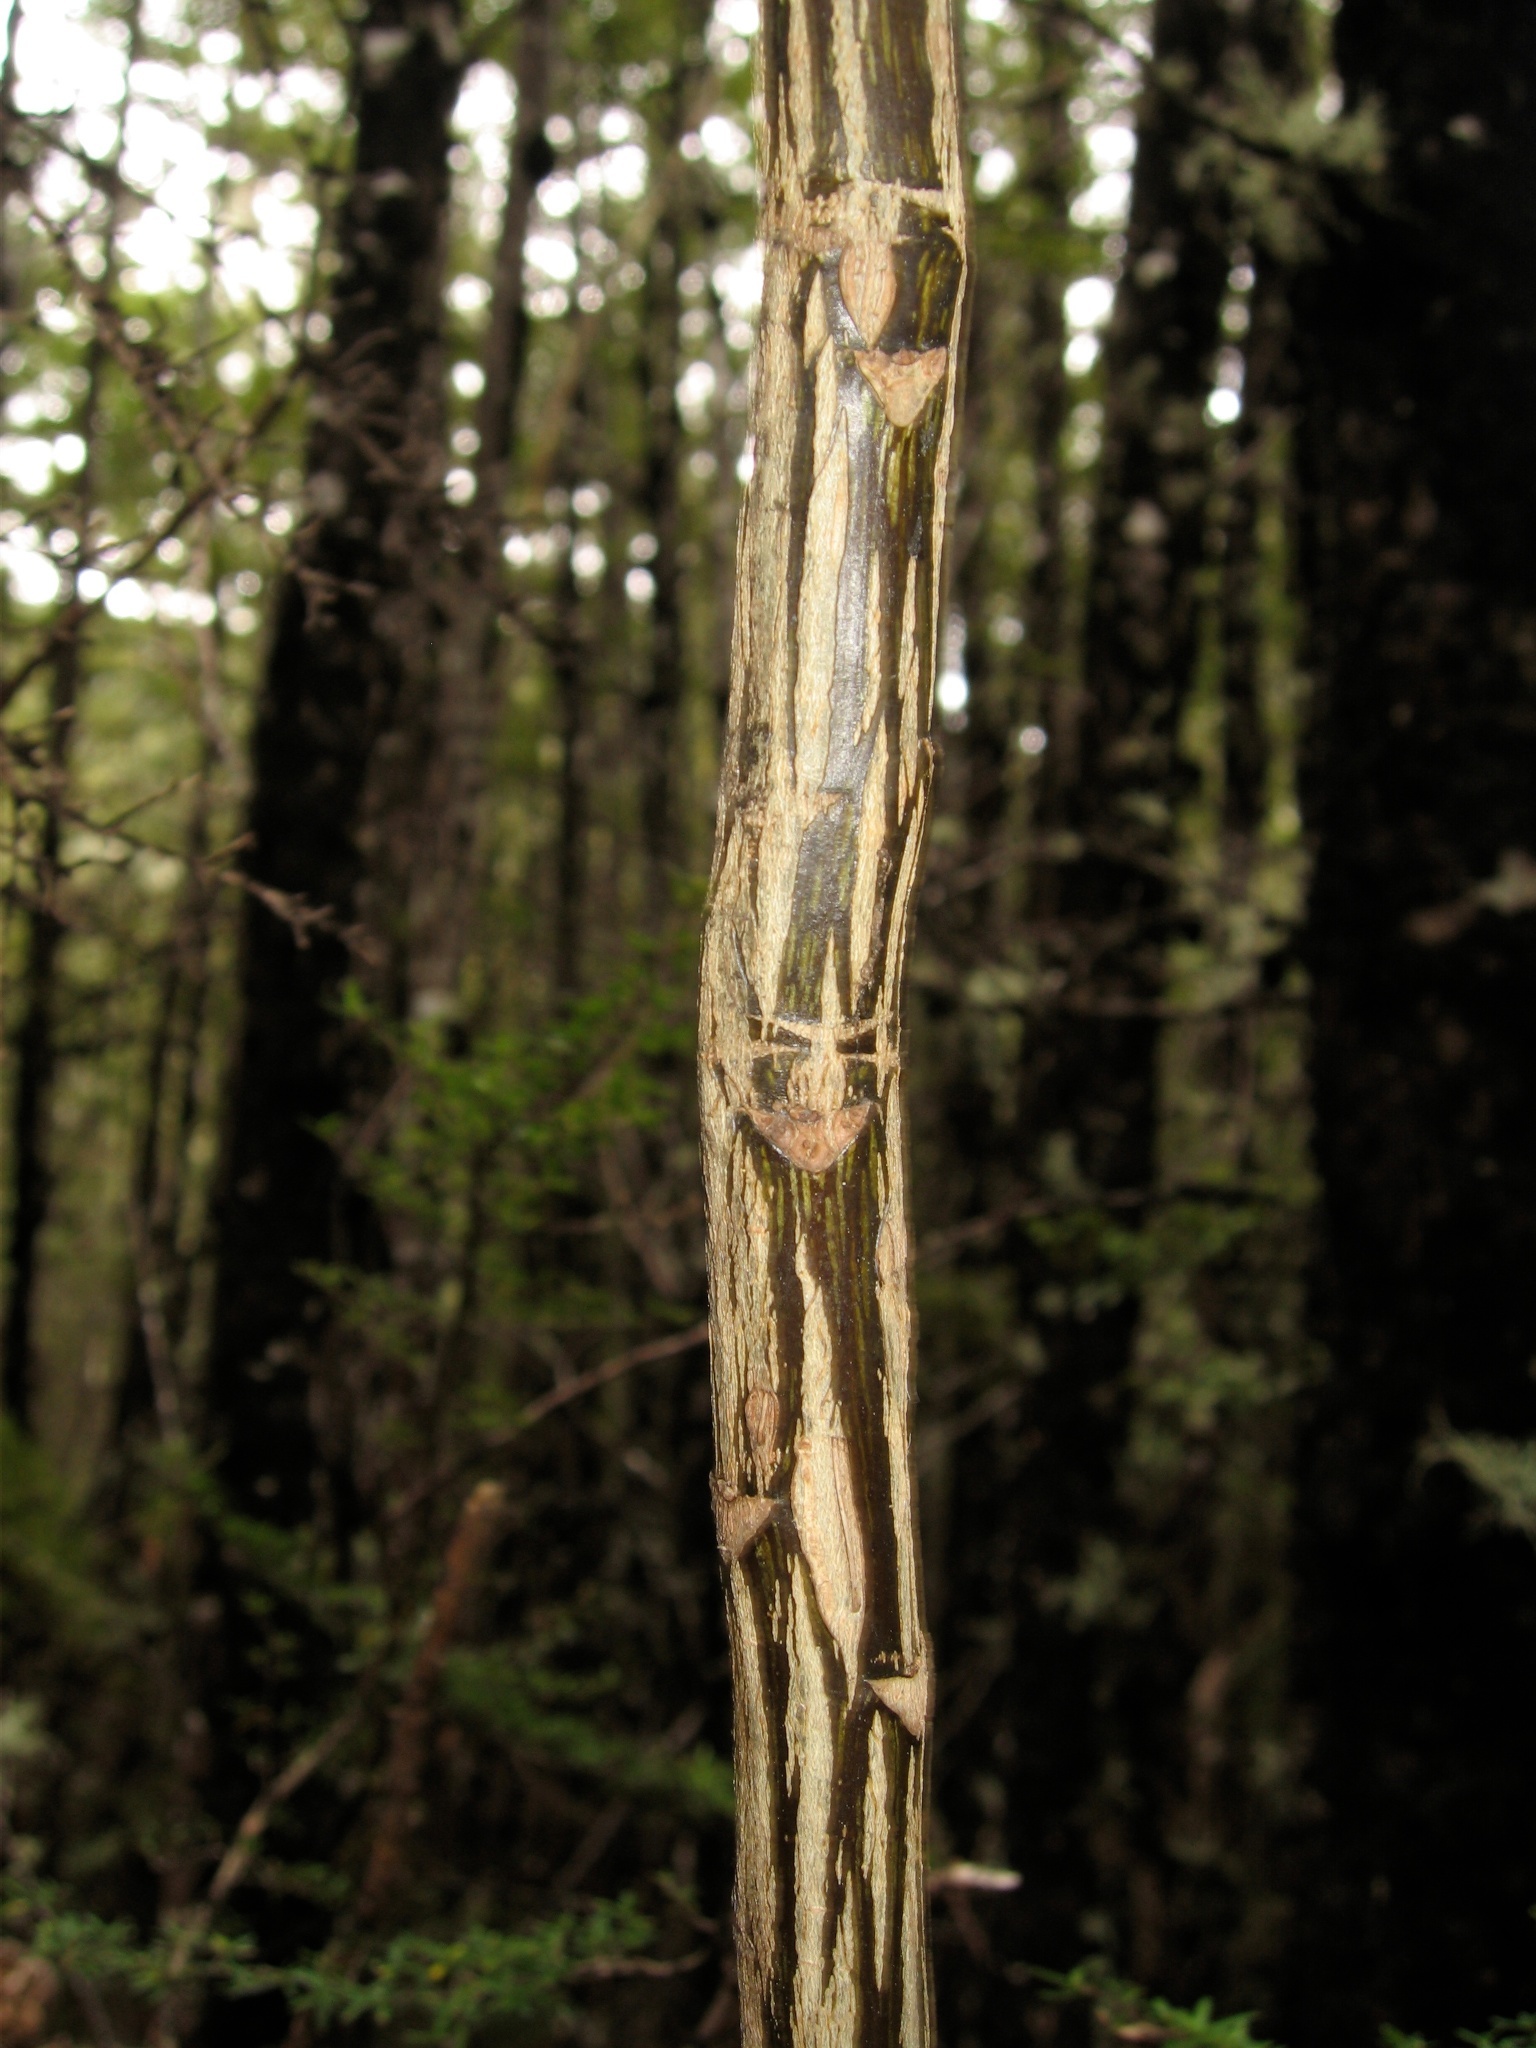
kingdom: Plantae
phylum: Tracheophyta
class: Magnoliopsida
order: Apiales
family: Araliaceae
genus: Pseudopanax
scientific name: Pseudopanax crassifolius
